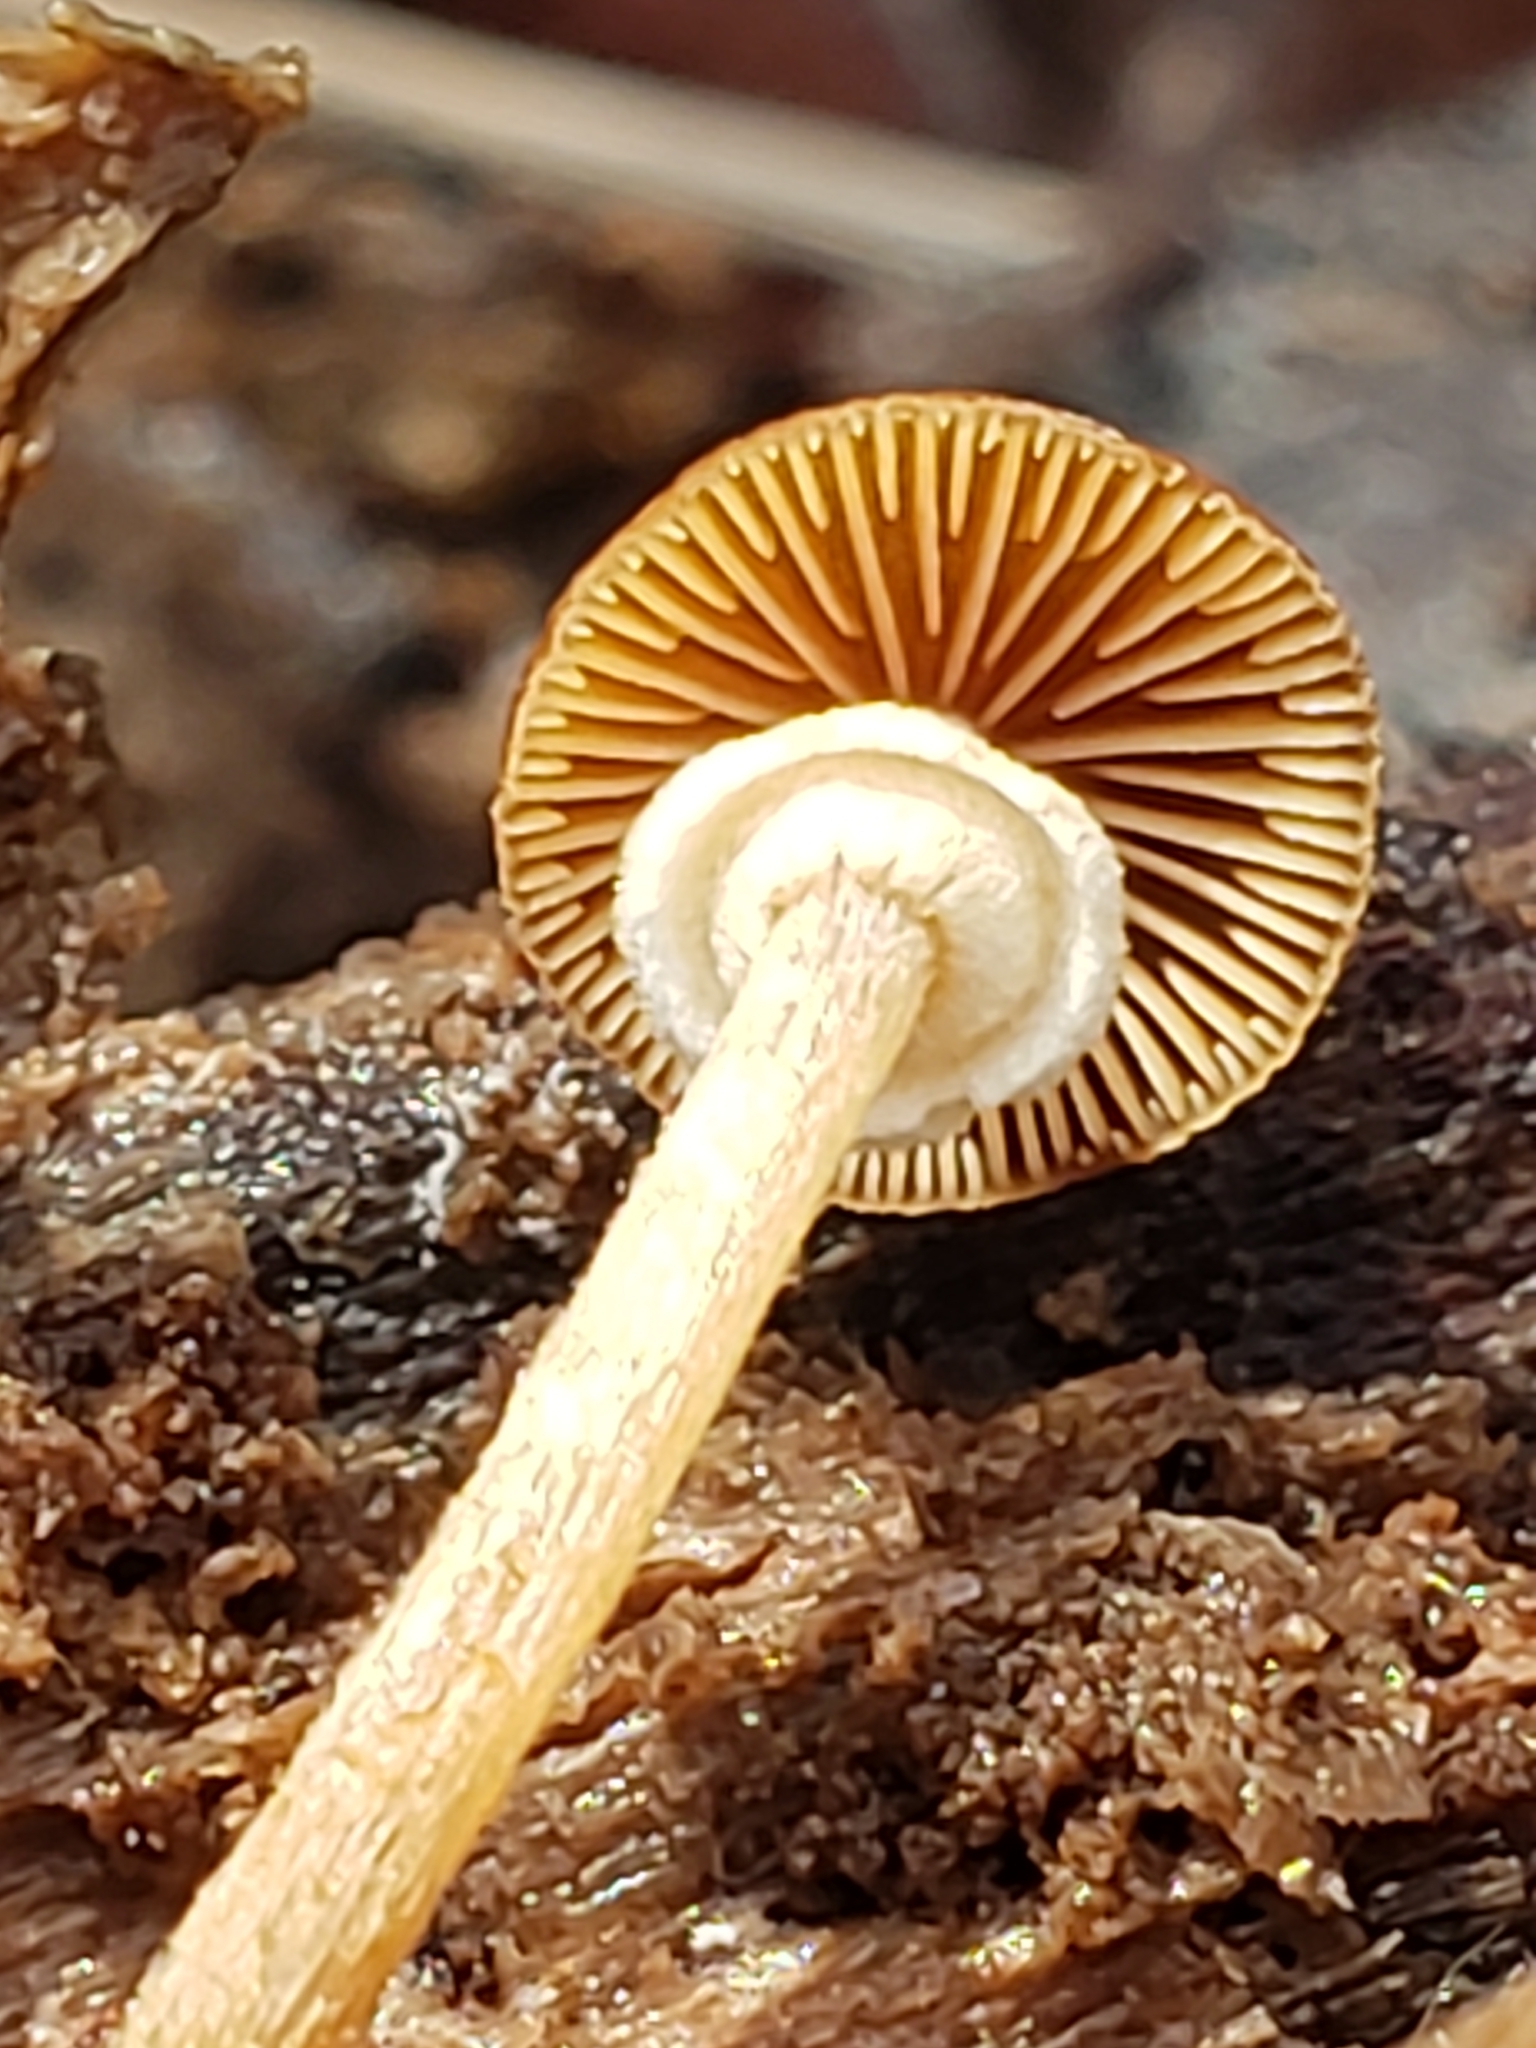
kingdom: Fungi
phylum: Basidiomycota
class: Agaricomycetes
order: Agaricales
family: Bolbitiaceae
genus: Conocybe
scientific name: Conocybe rugosa
